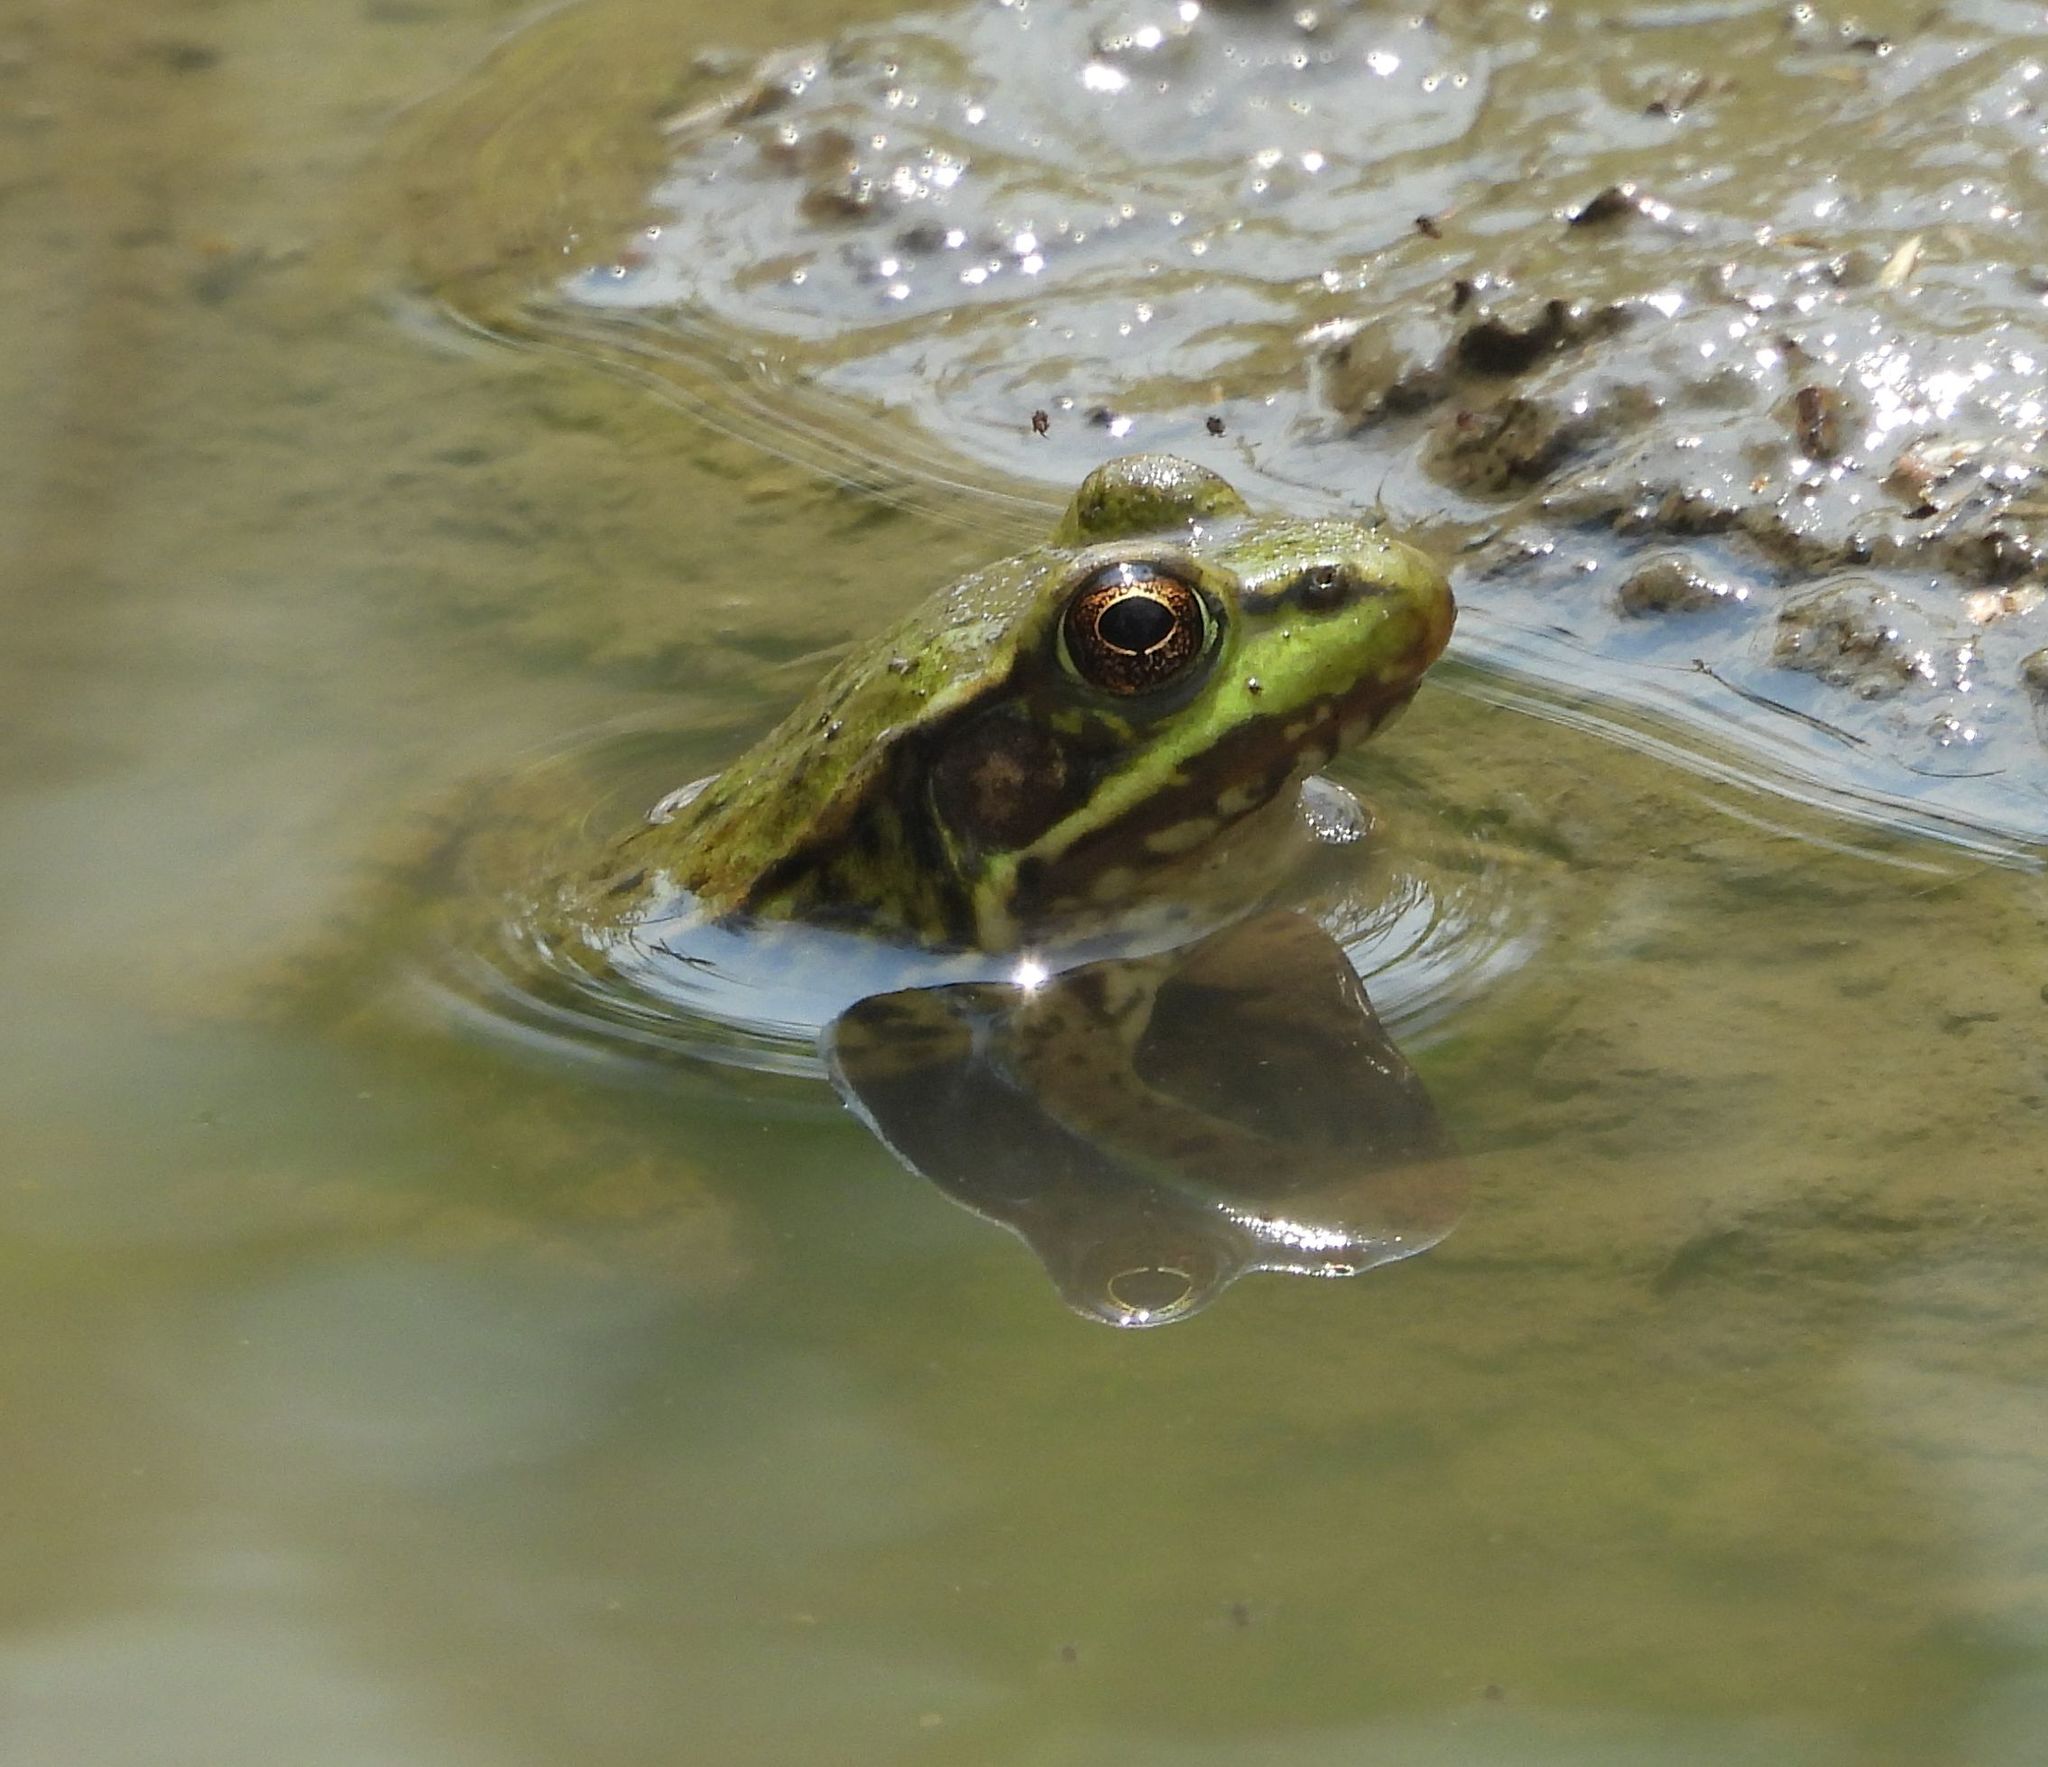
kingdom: Animalia
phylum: Chordata
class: Amphibia
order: Anura
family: Ranidae
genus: Lithobates
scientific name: Lithobates clamitans
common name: Green frog
